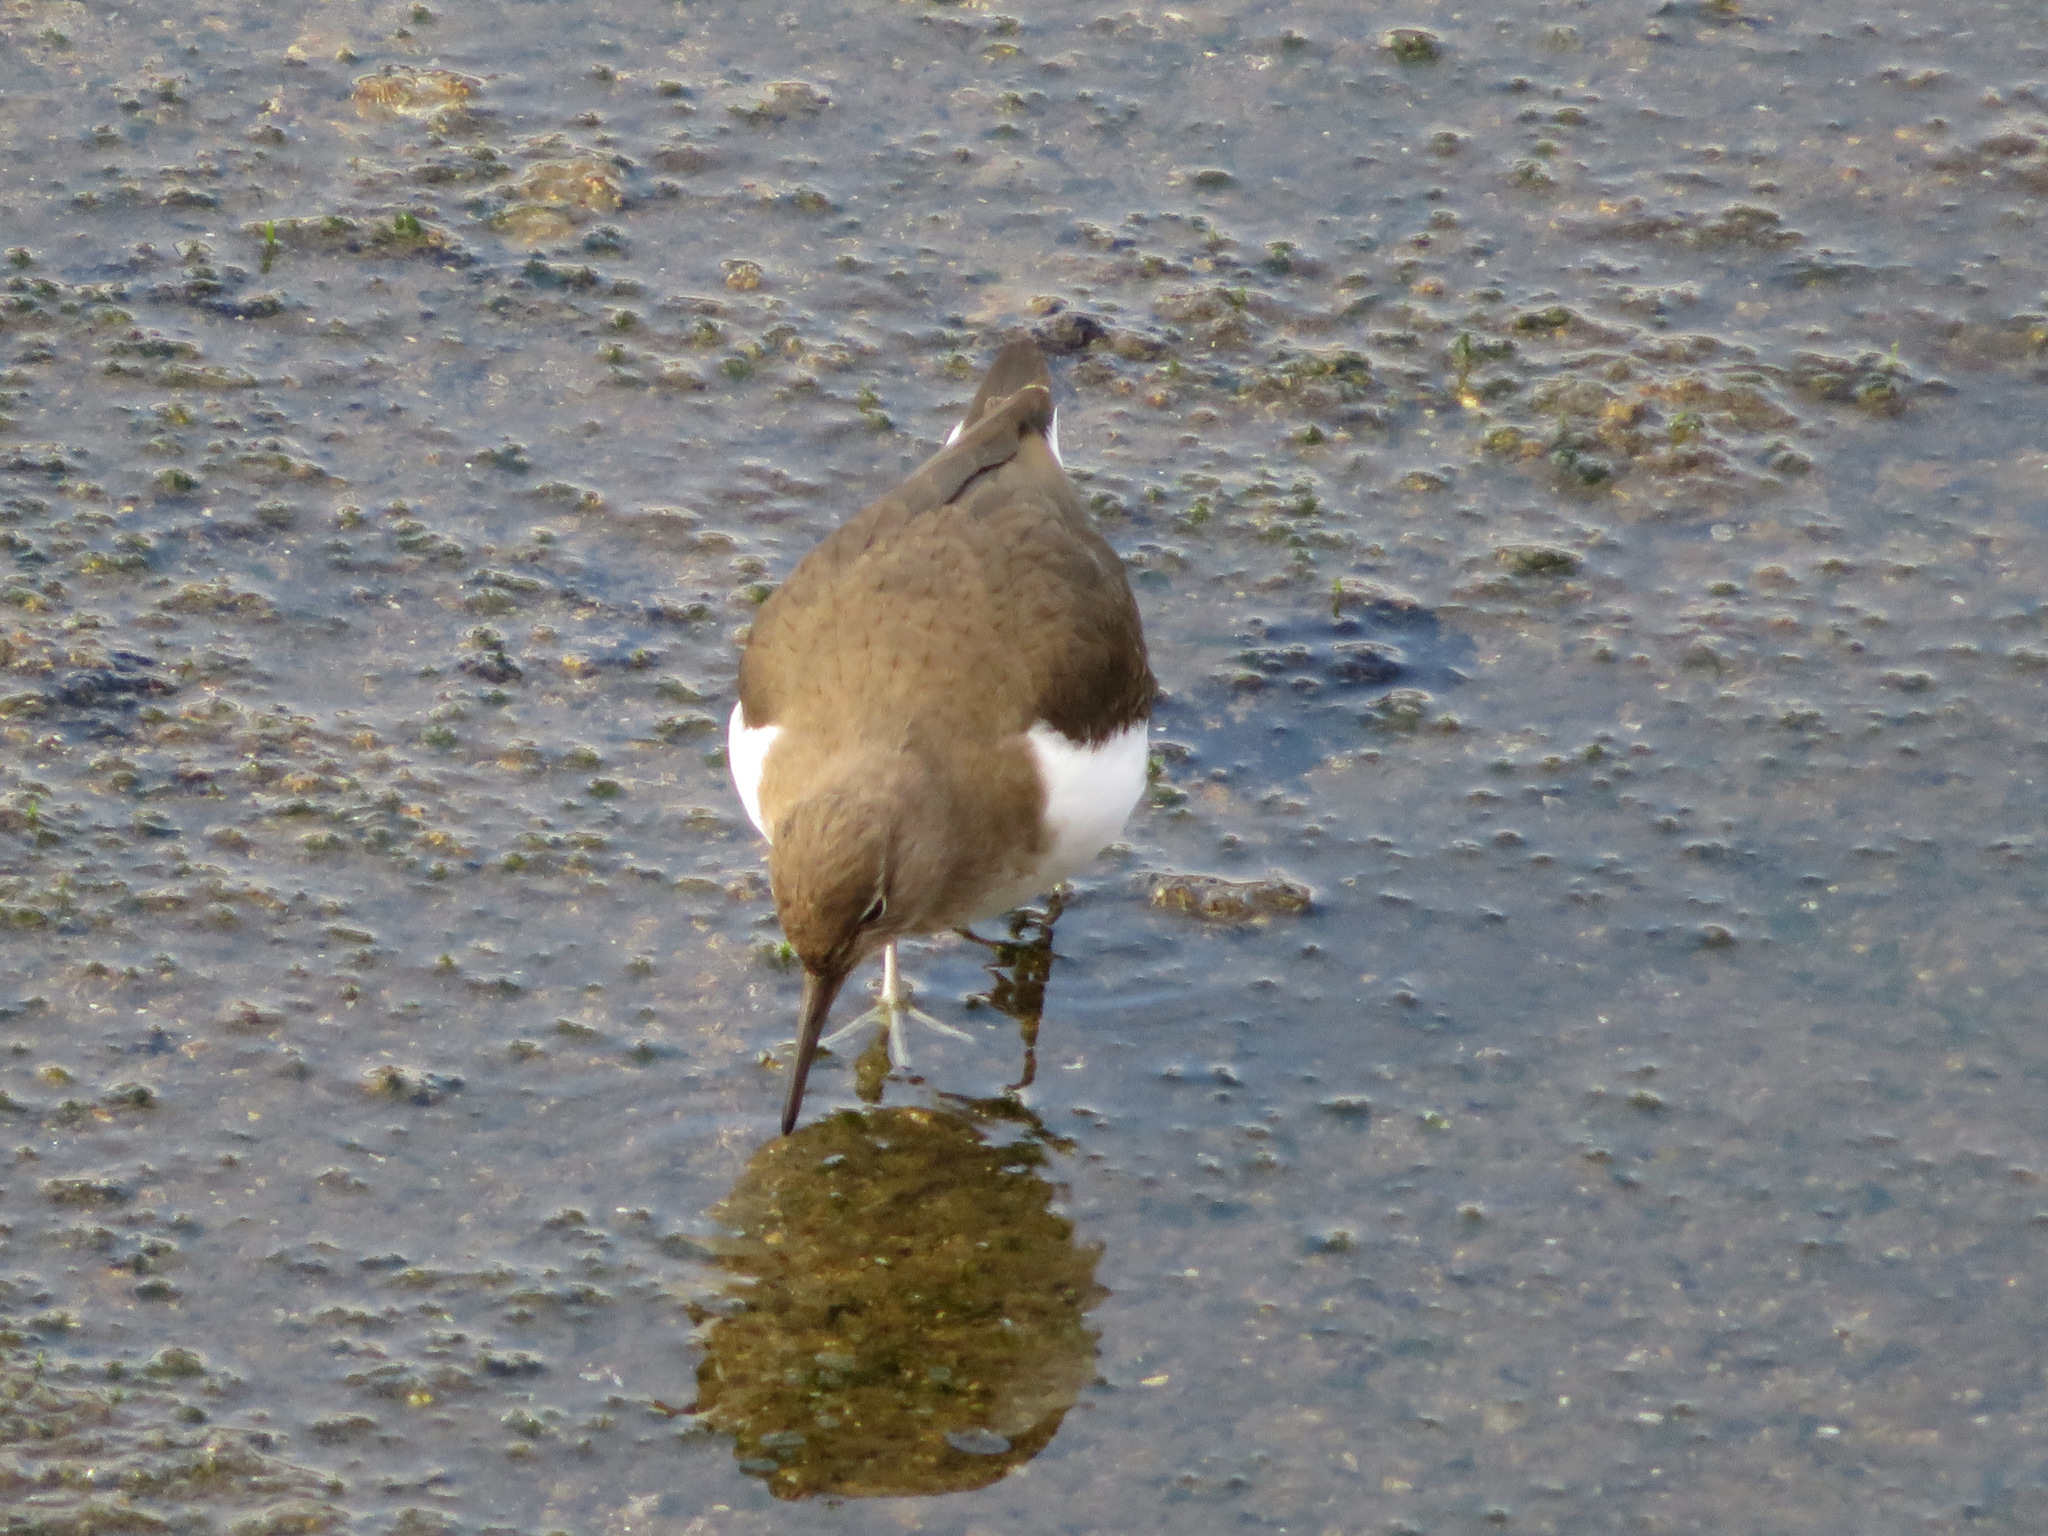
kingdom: Animalia
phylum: Chordata
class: Aves
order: Charadriiformes
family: Scolopacidae
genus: Actitis
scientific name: Actitis hypoleucos
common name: Common sandpiper
